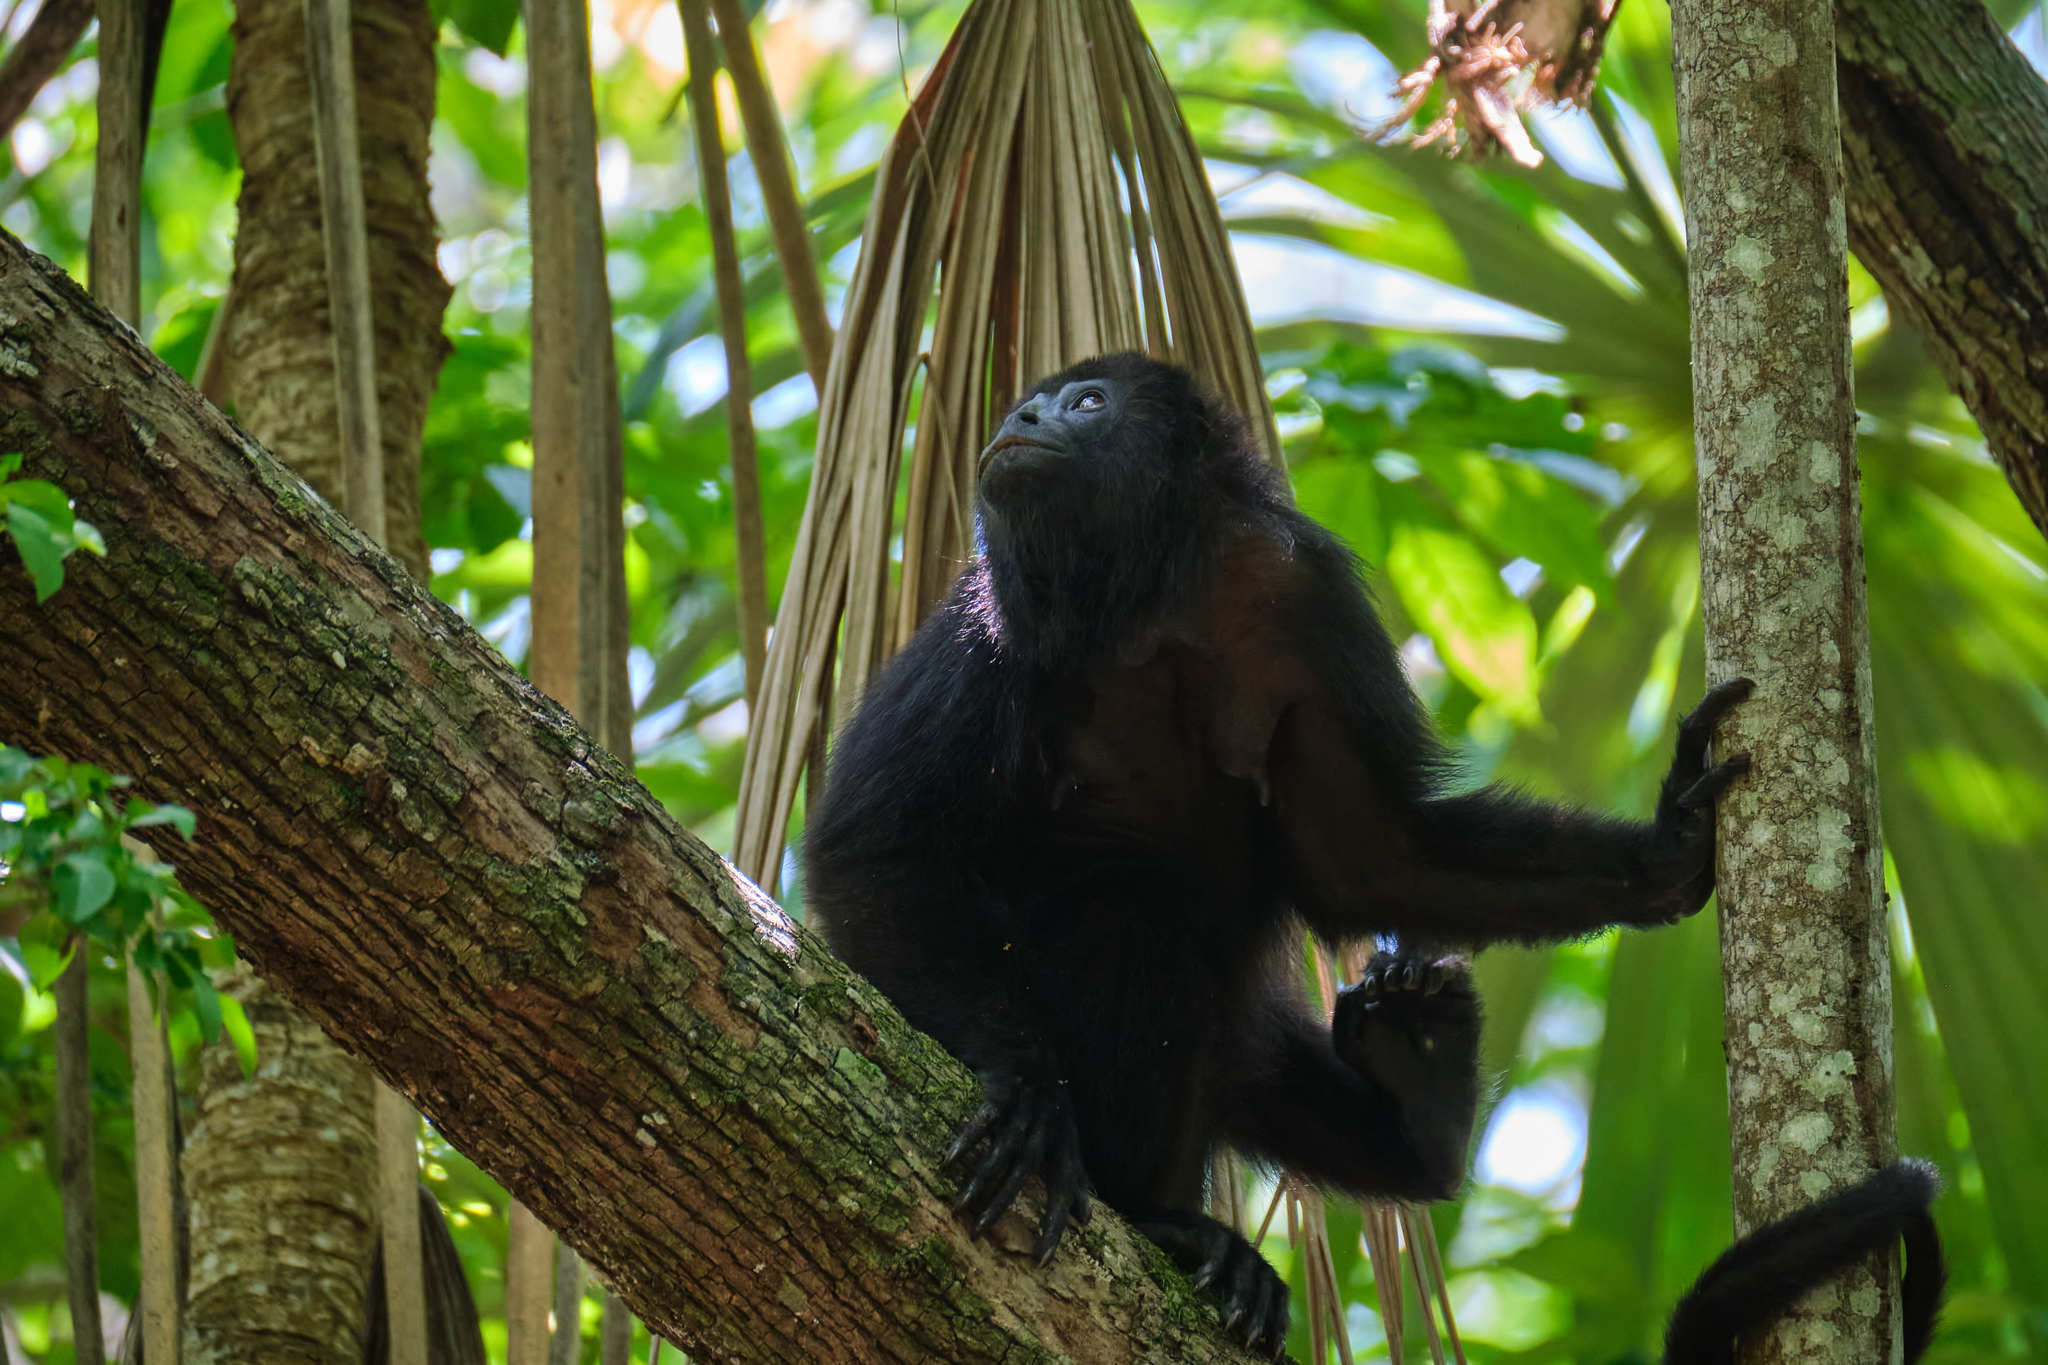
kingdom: Animalia
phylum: Chordata
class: Mammalia
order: Primates
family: Atelidae
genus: Alouatta
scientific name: Alouatta pigra
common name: Guatemalan black howler
